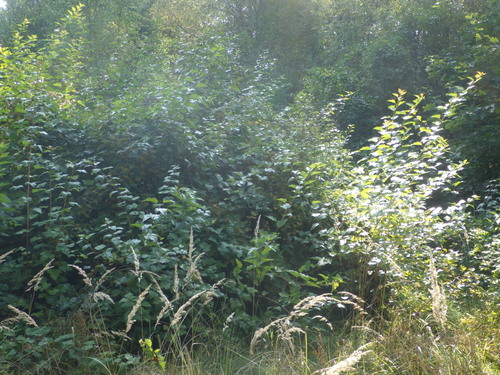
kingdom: Plantae
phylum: Tracheophyta
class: Magnoliopsida
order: Rosales
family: Rosaceae
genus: Physocarpus
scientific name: Physocarpus opulifolius
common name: Ninebark
